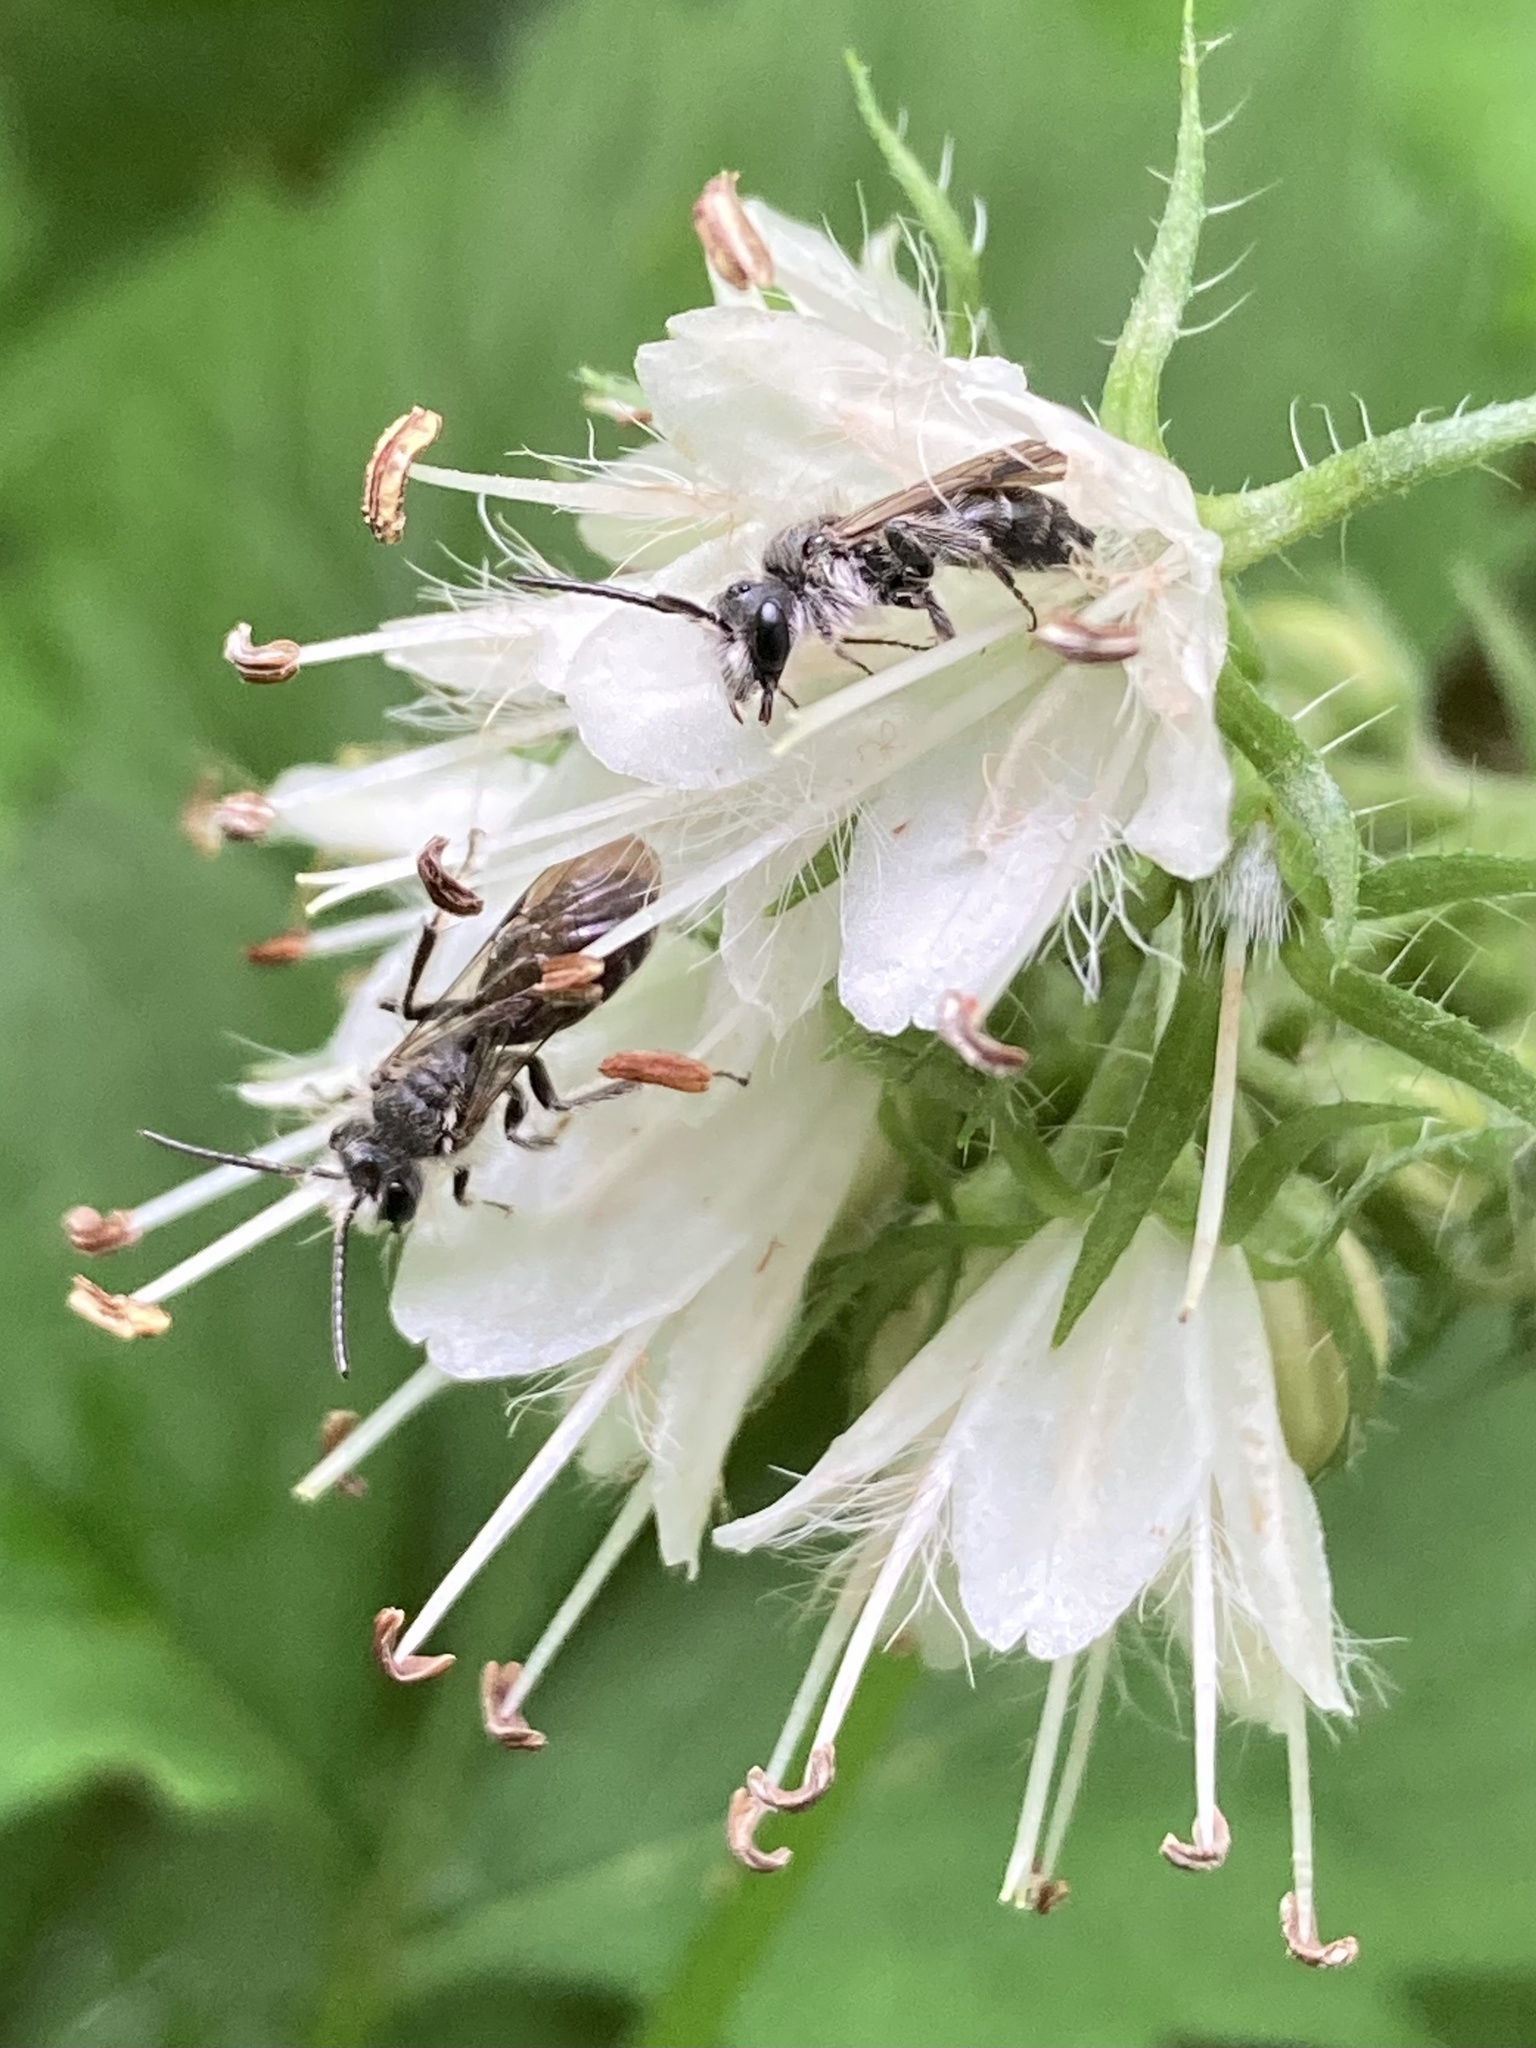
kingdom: Animalia
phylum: Arthropoda
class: Insecta
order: Hymenoptera
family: Andrenidae
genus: Andrena
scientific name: Andrena geranii
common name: Waterleaf mining bee
